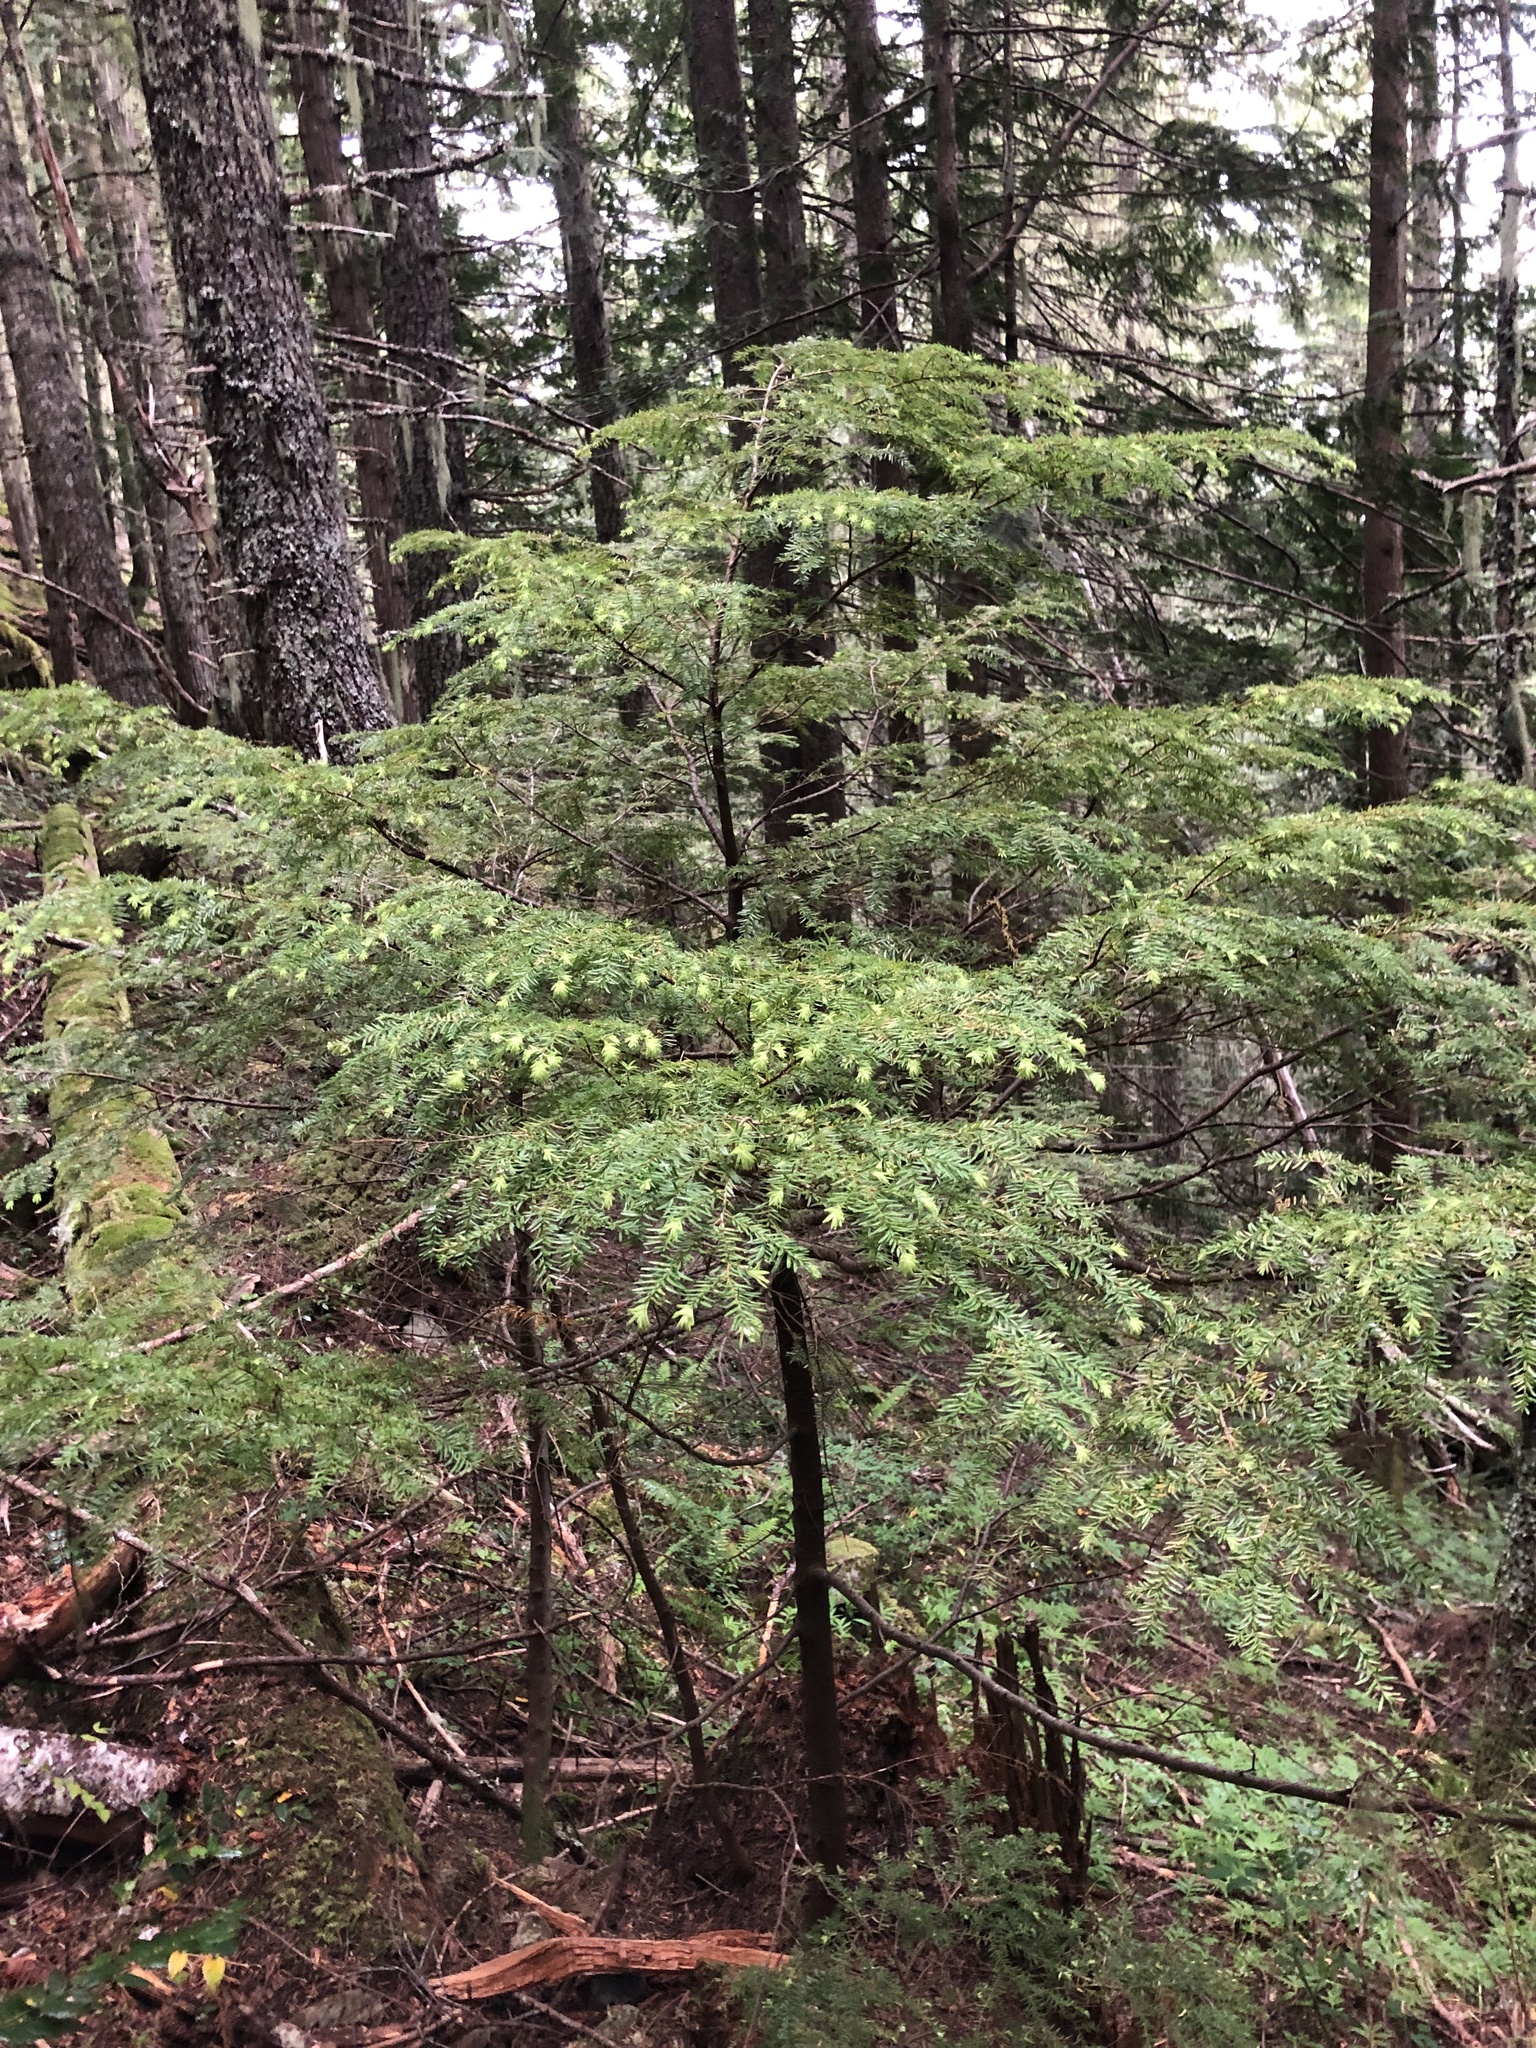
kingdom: Plantae
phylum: Tracheophyta
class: Pinopsida
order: Pinales
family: Pinaceae
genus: Tsuga
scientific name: Tsuga heterophylla
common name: Western hemlock
